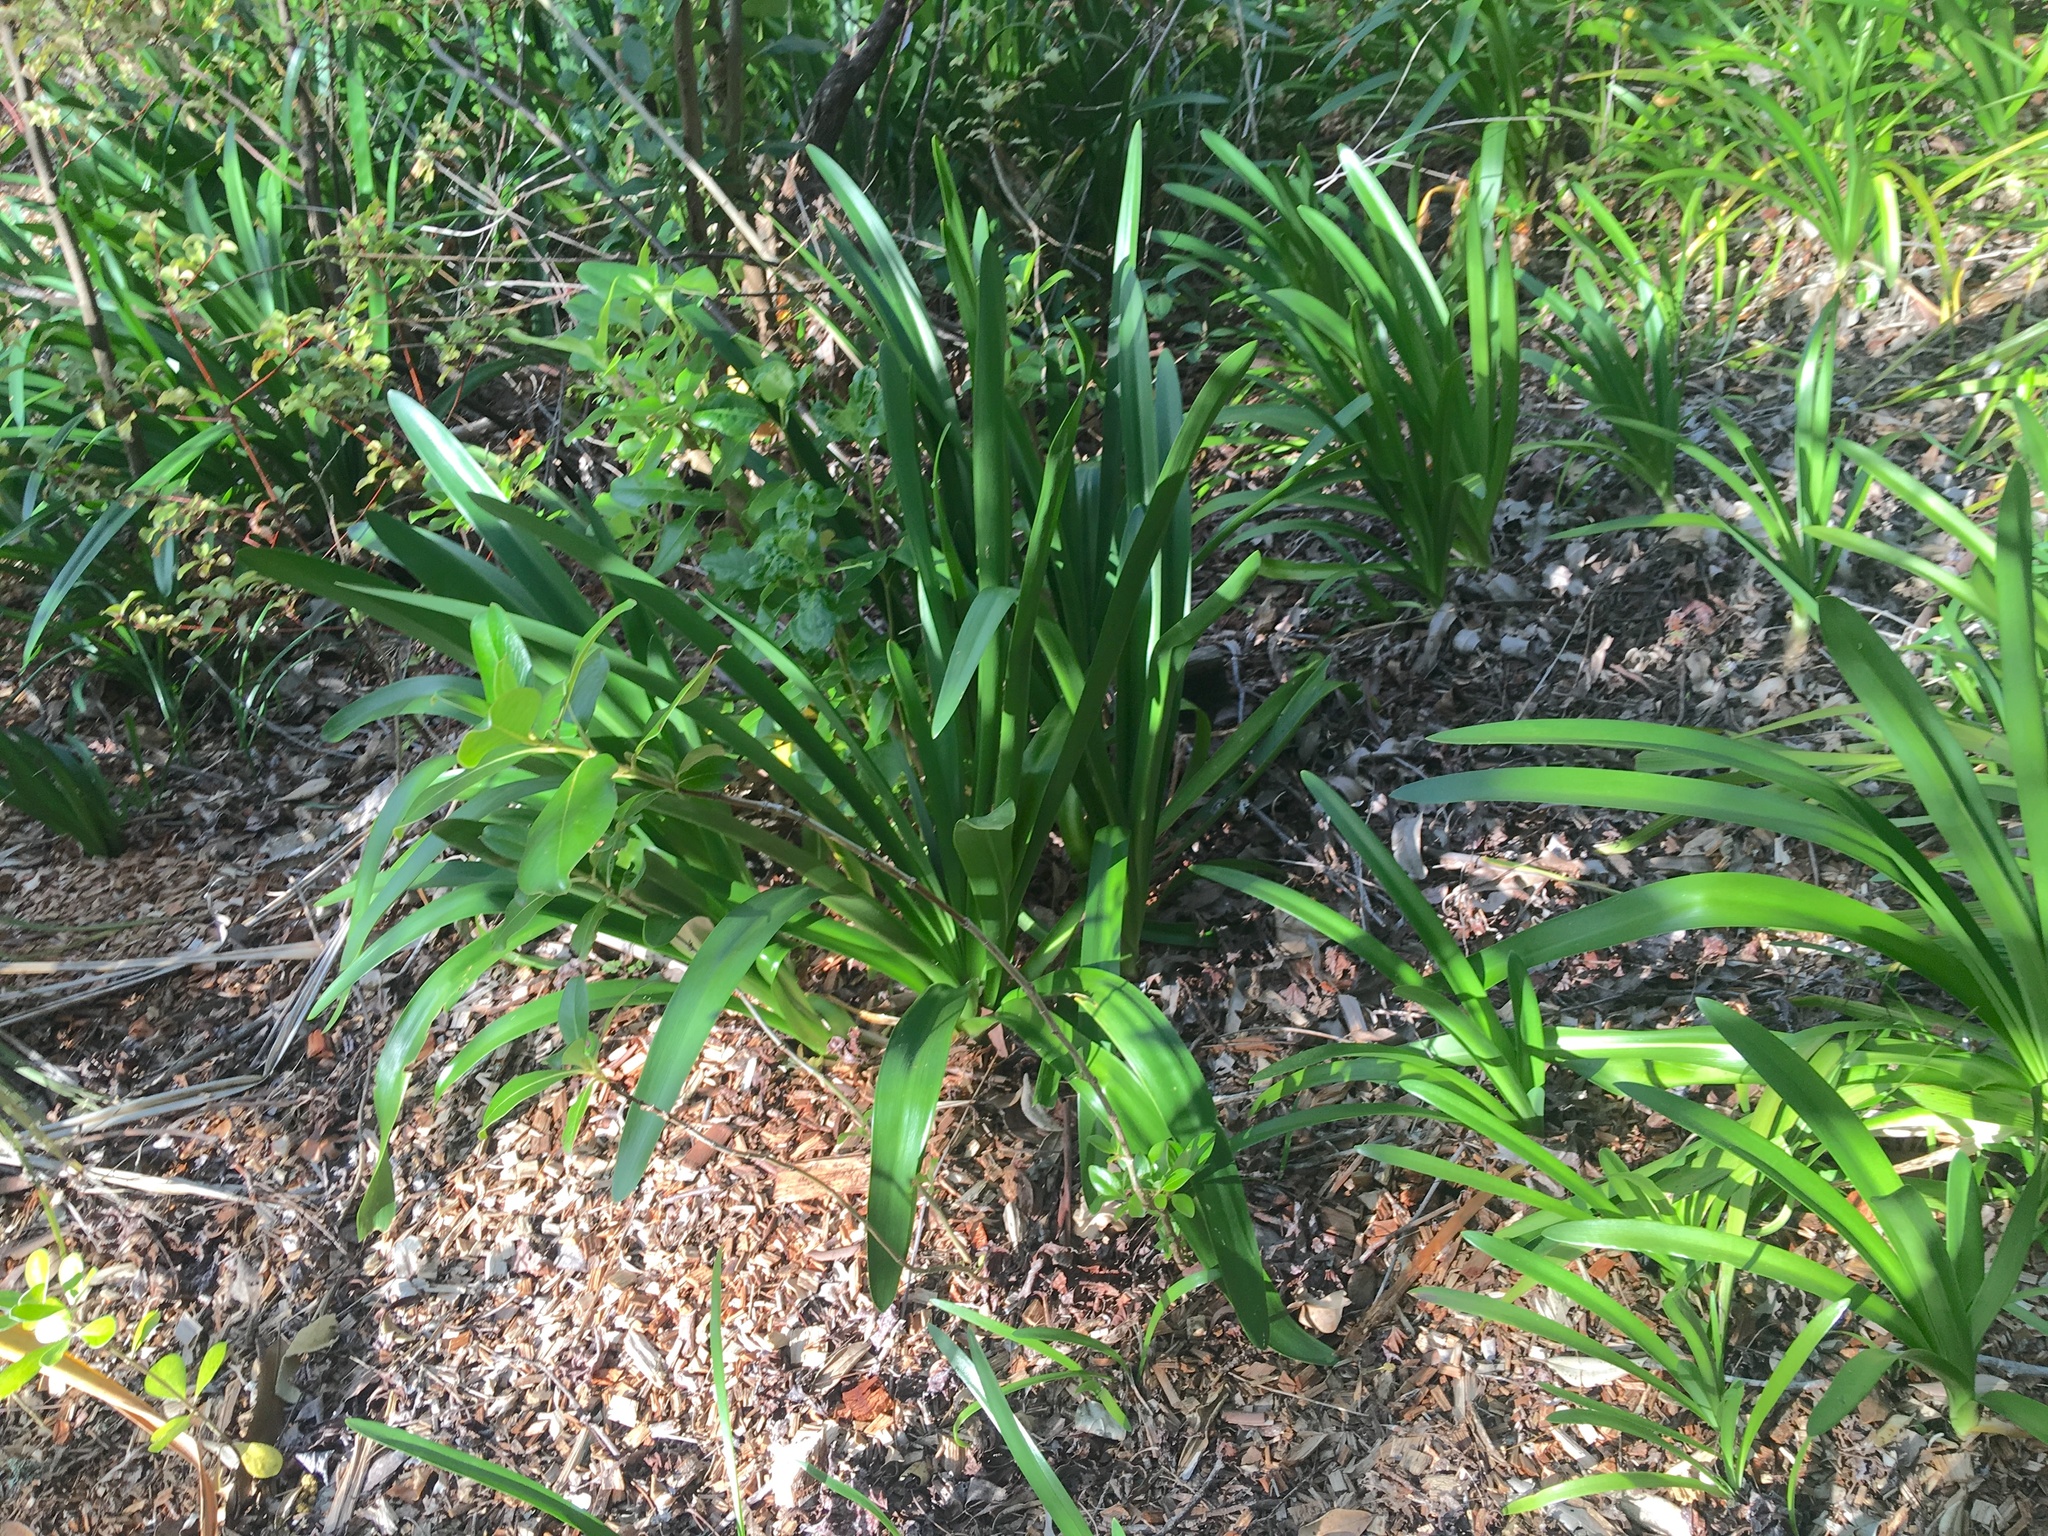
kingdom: Plantae
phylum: Tracheophyta
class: Liliopsida
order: Asparagales
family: Amaryllidaceae
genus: Agapanthus
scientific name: Agapanthus praecox
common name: African-lily
